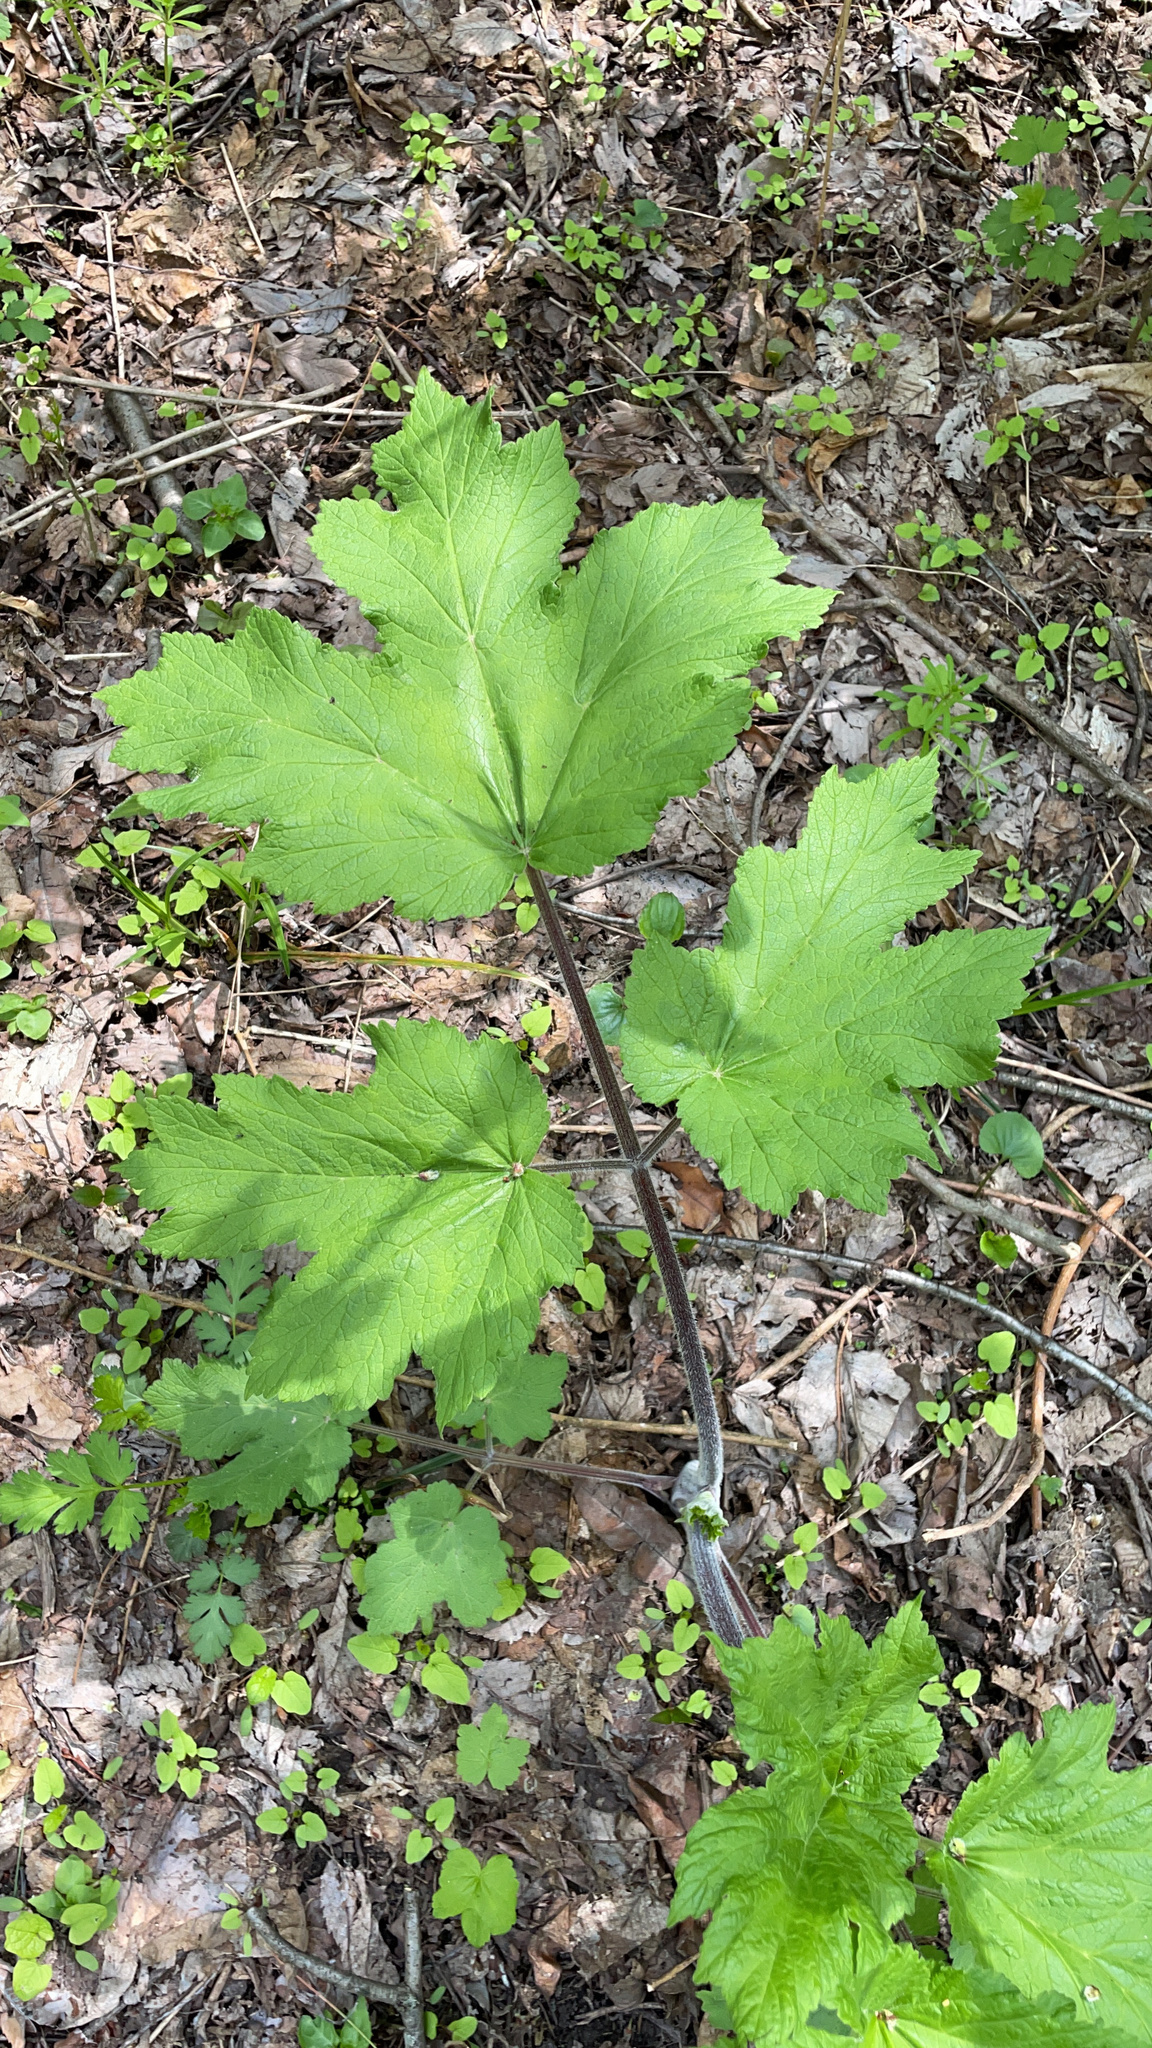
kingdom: Plantae
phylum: Tracheophyta
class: Magnoliopsida
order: Apiales
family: Apiaceae
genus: Heracleum
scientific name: Heracleum maximum
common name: American cow parsnip
